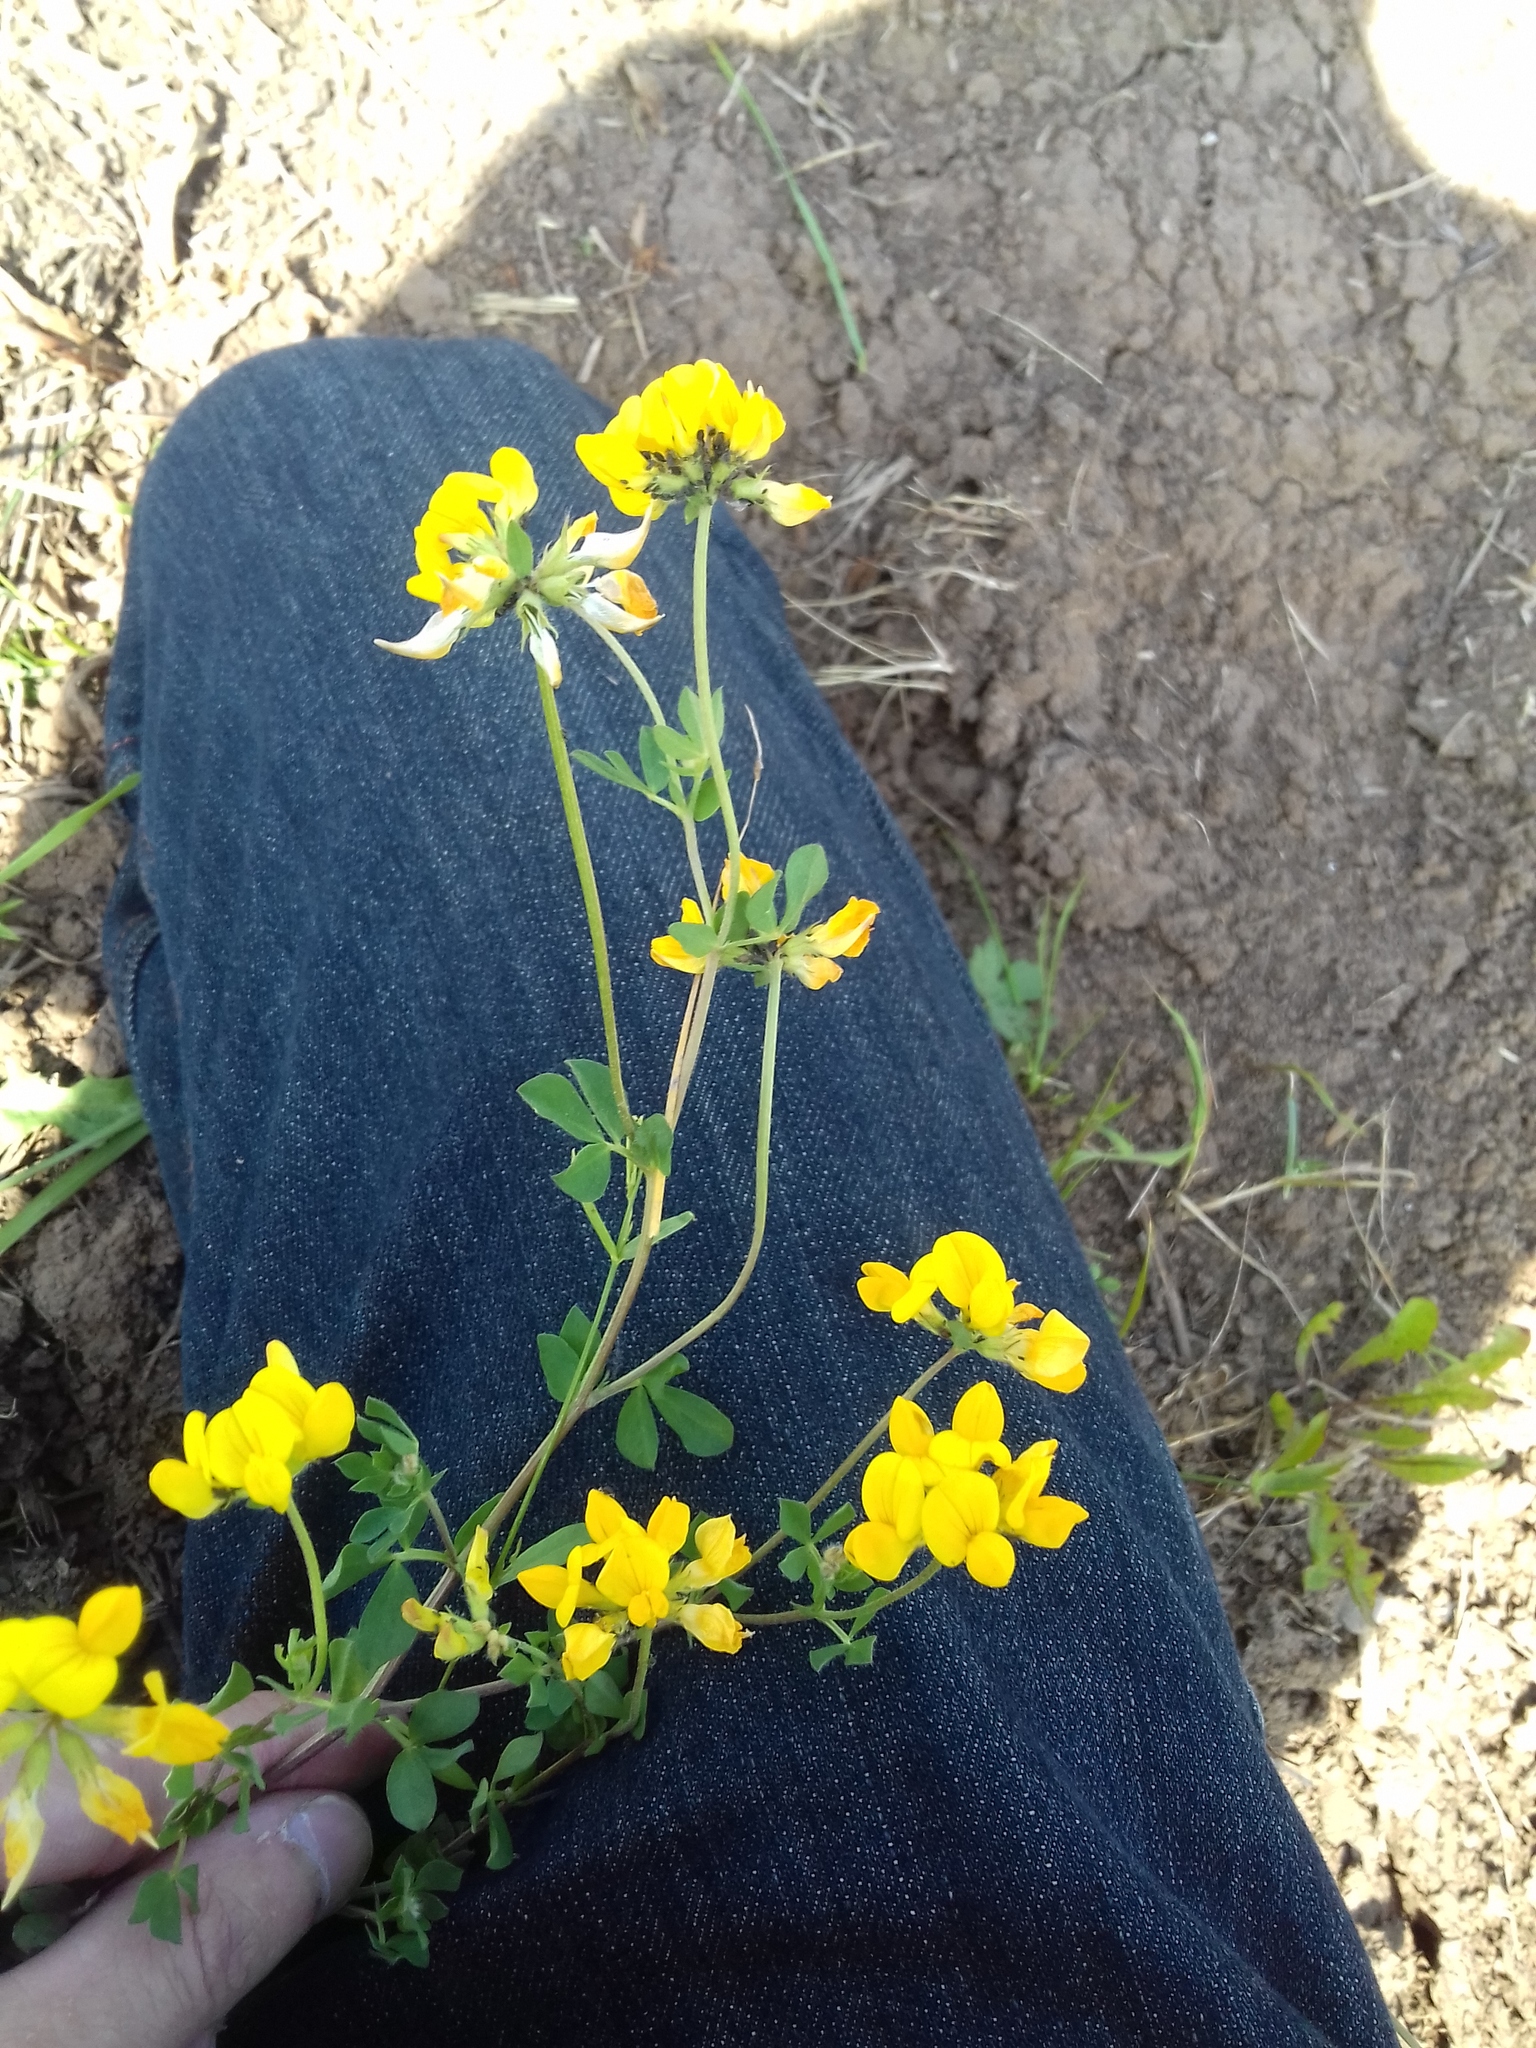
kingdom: Plantae
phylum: Tracheophyta
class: Magnoliopsida
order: Fabales
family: Fabaceae
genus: Lotus
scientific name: Lotus corniculatus
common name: Common bird's-foot-trefoil
